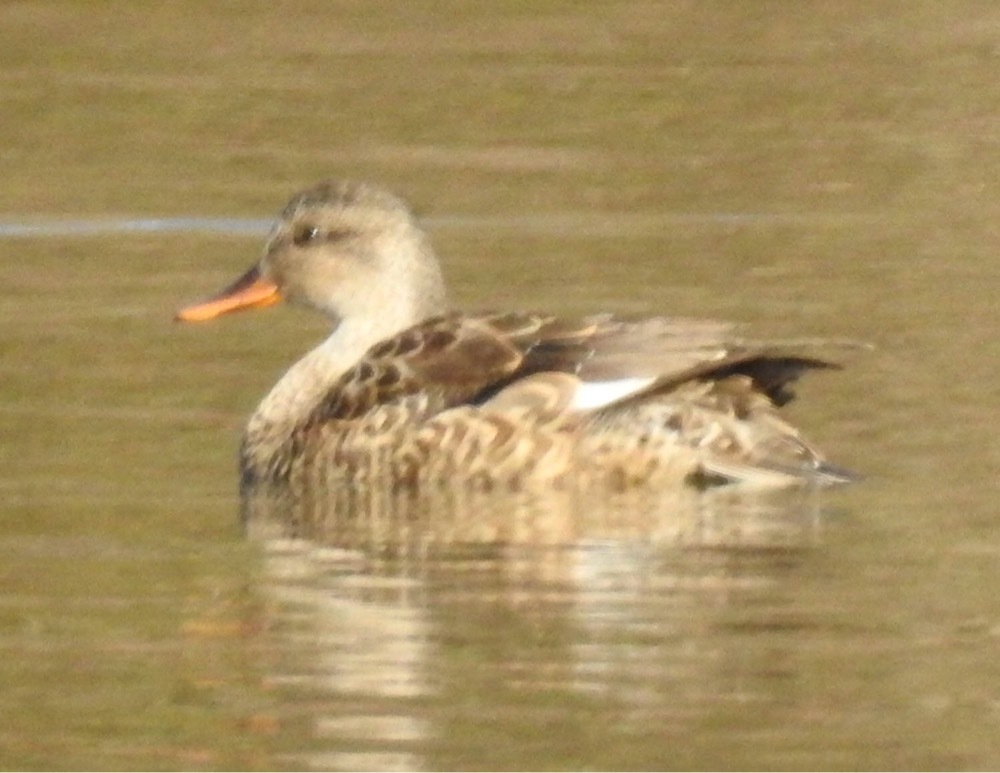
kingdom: Animalia
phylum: Chordata
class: Aves
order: Anseriformes
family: Anatidae
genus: Mareca
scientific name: Mareca strepera
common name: Gadwall
